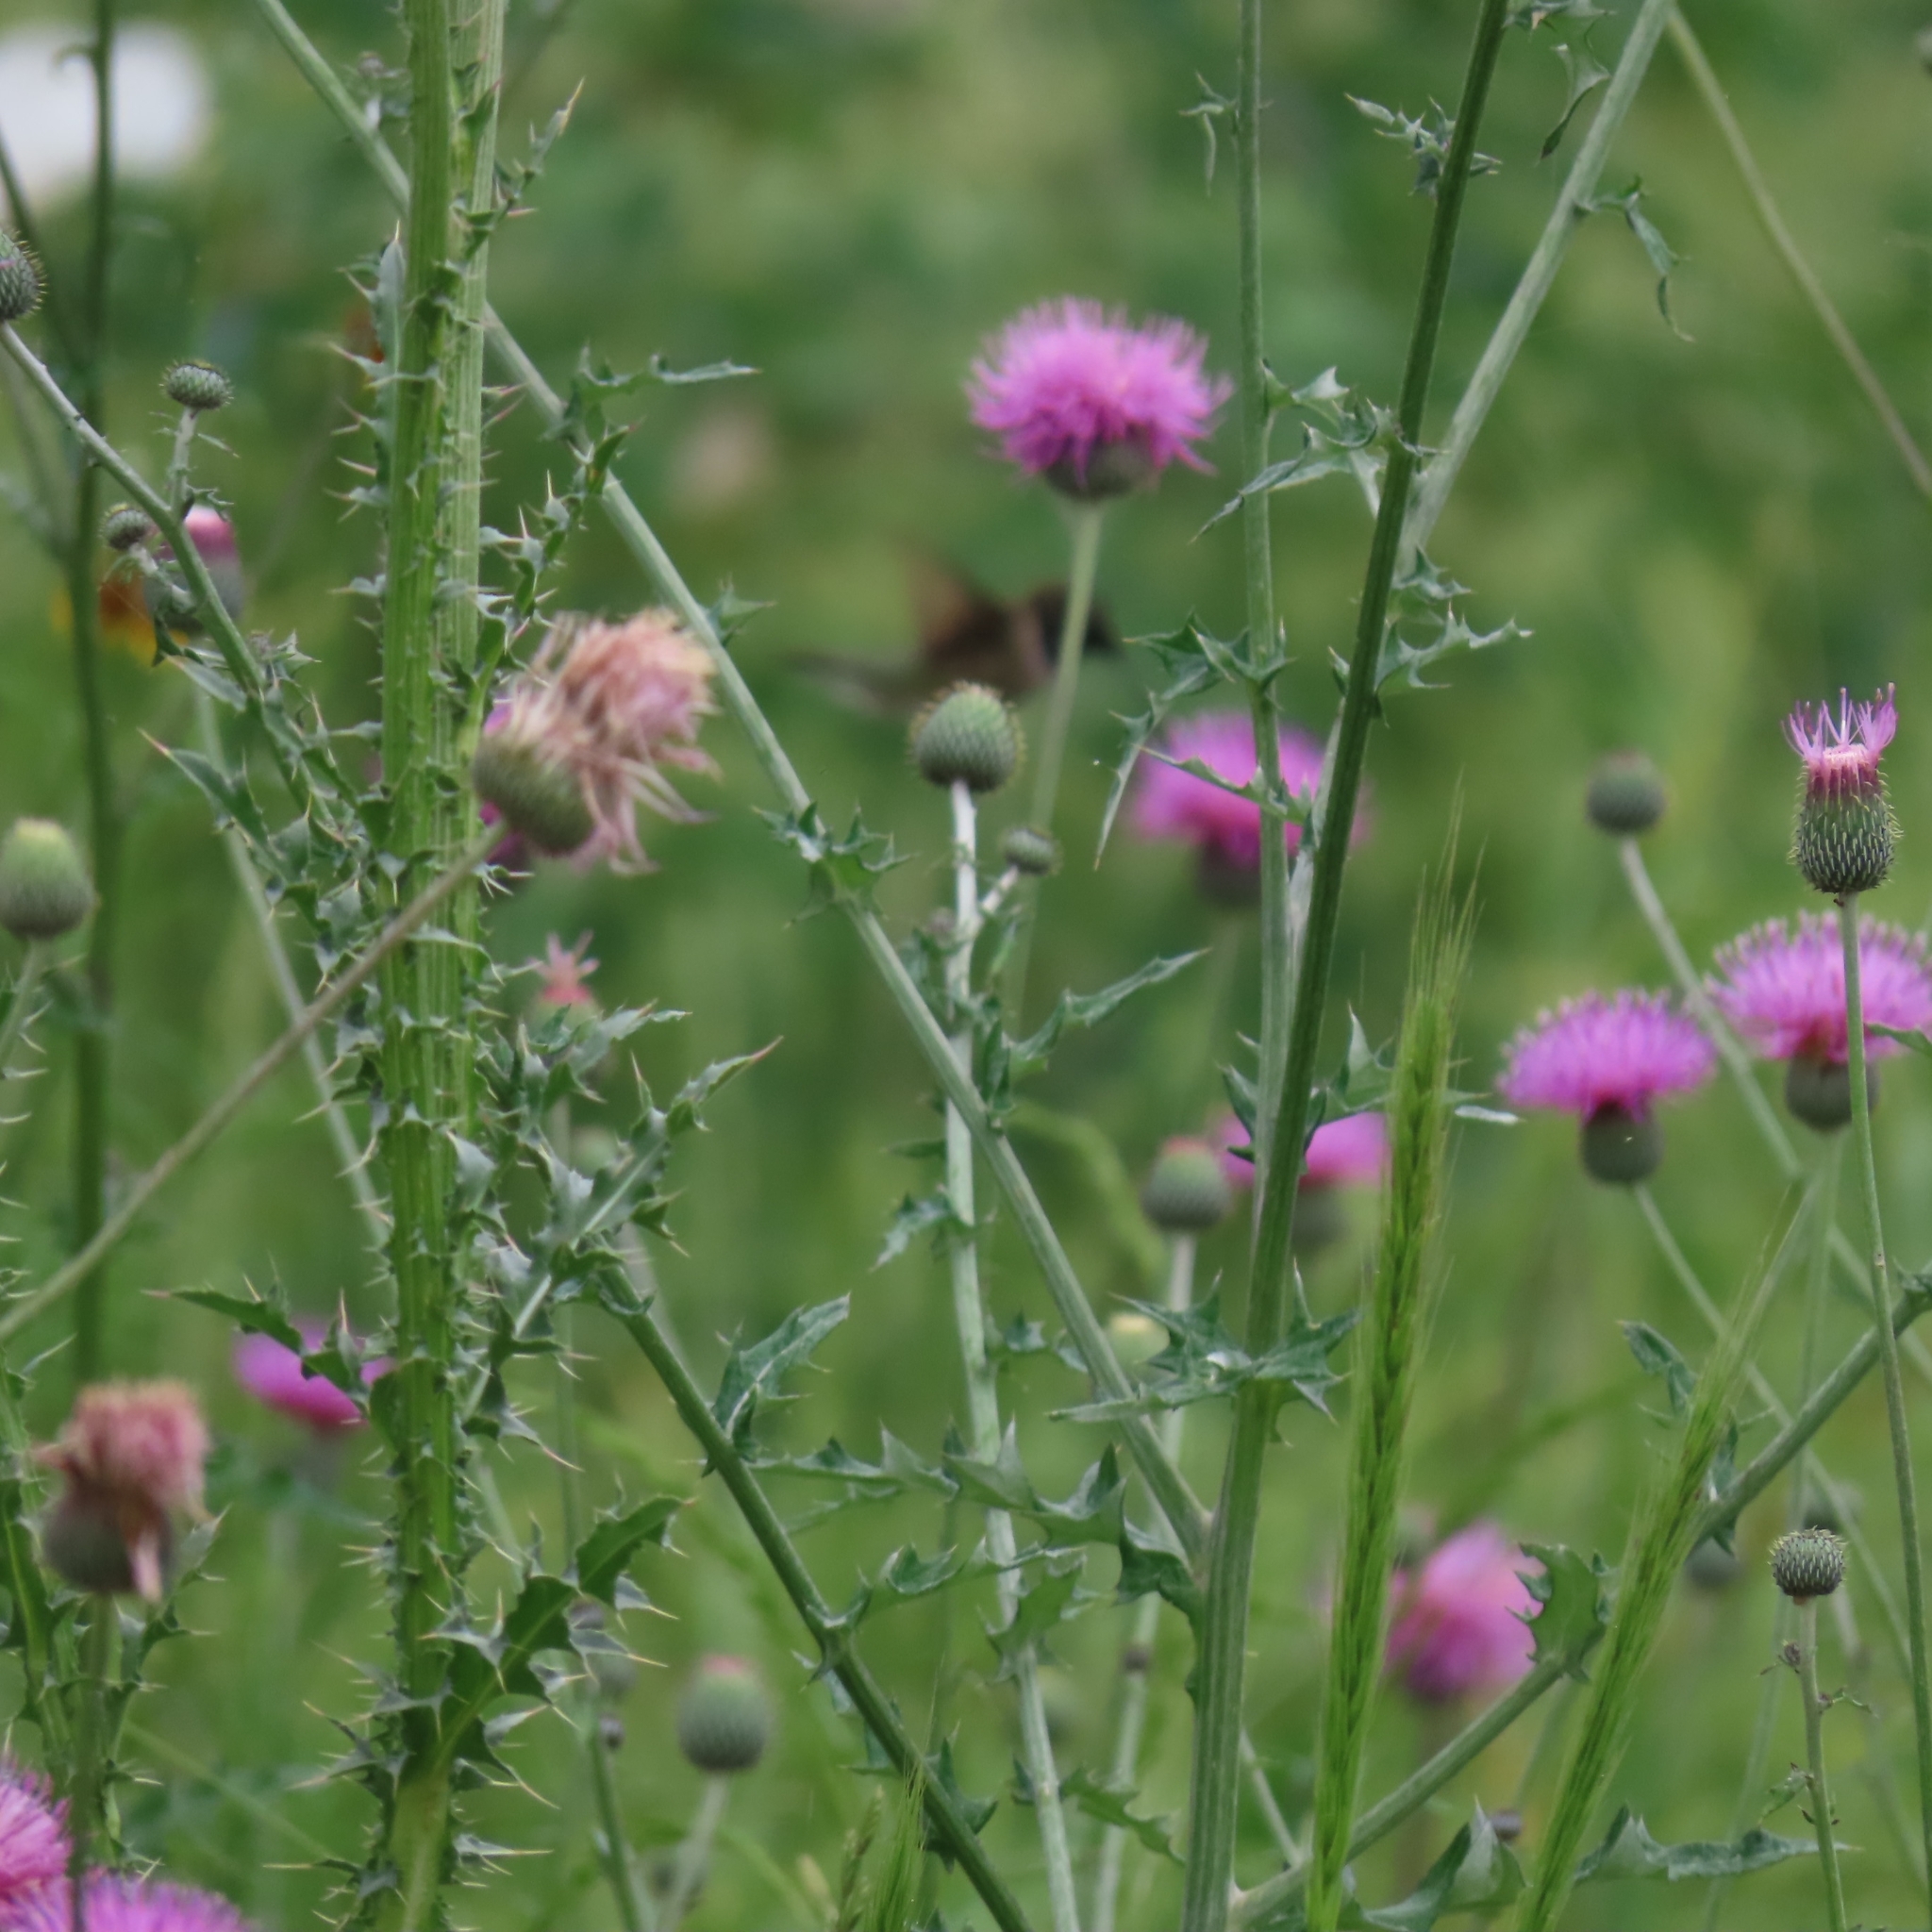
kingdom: Plantae
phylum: Tracheophyta
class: Magnoliopsida
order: Asterales
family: Asteraceae
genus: Cirsium
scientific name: Cirsium texanum
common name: Texas purple thistle
